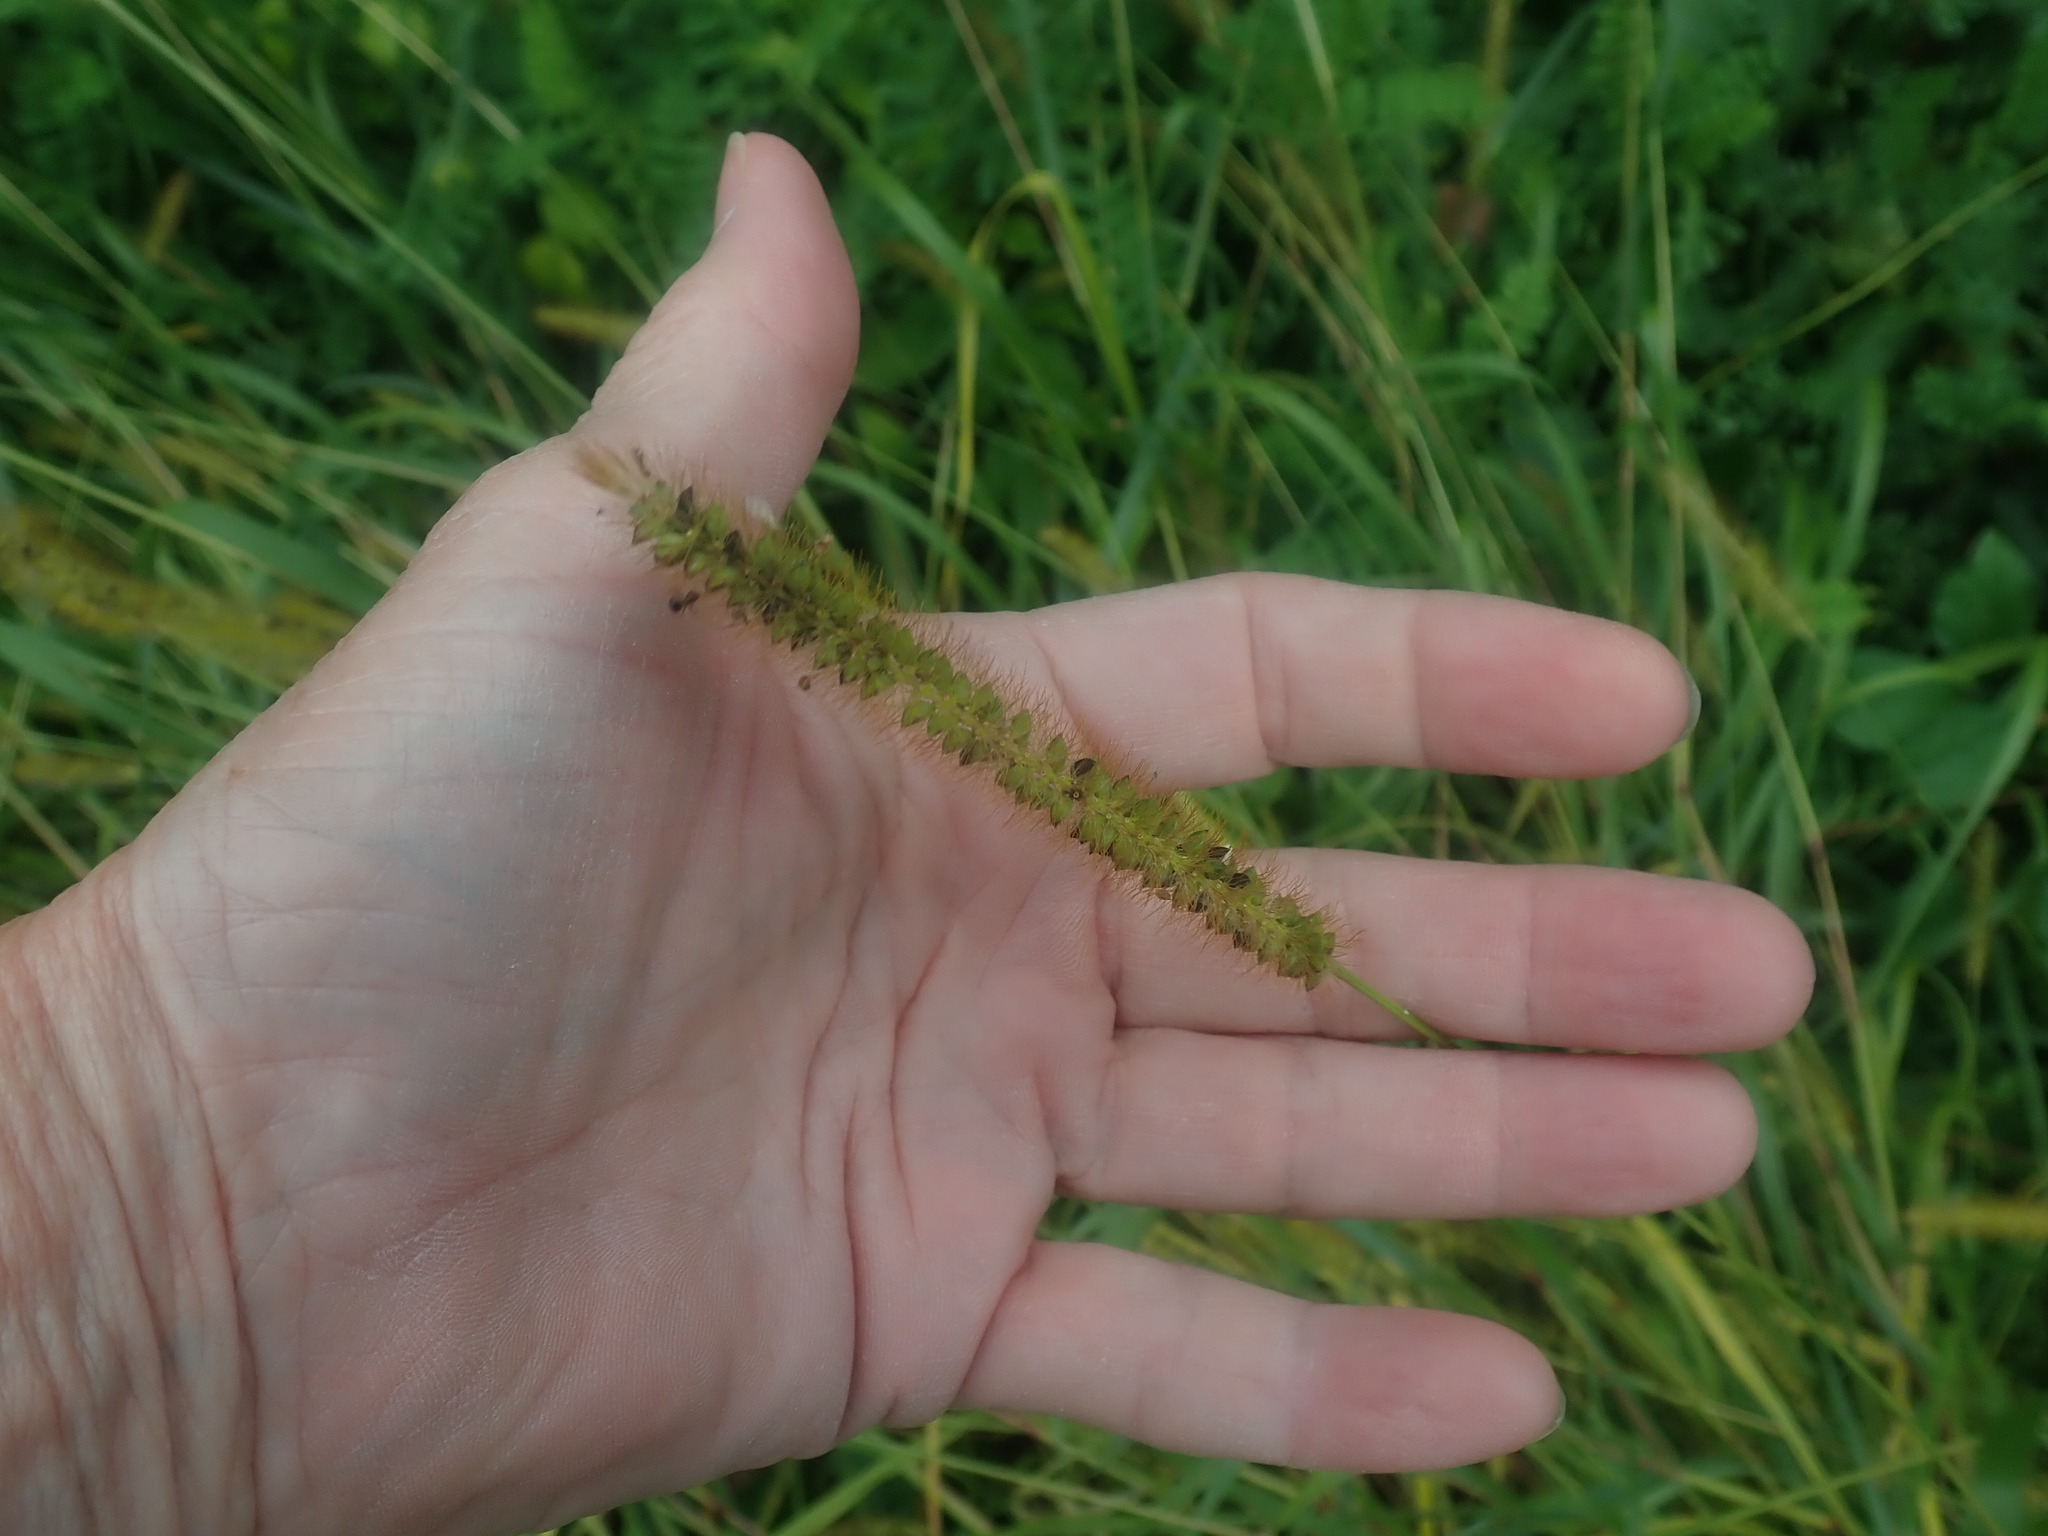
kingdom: Plantae
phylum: Tracheophyta
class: Liliopsida
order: Poales
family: Poaceae
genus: Setaria
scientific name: Setaria pumila
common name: Yellow bristle-grass
